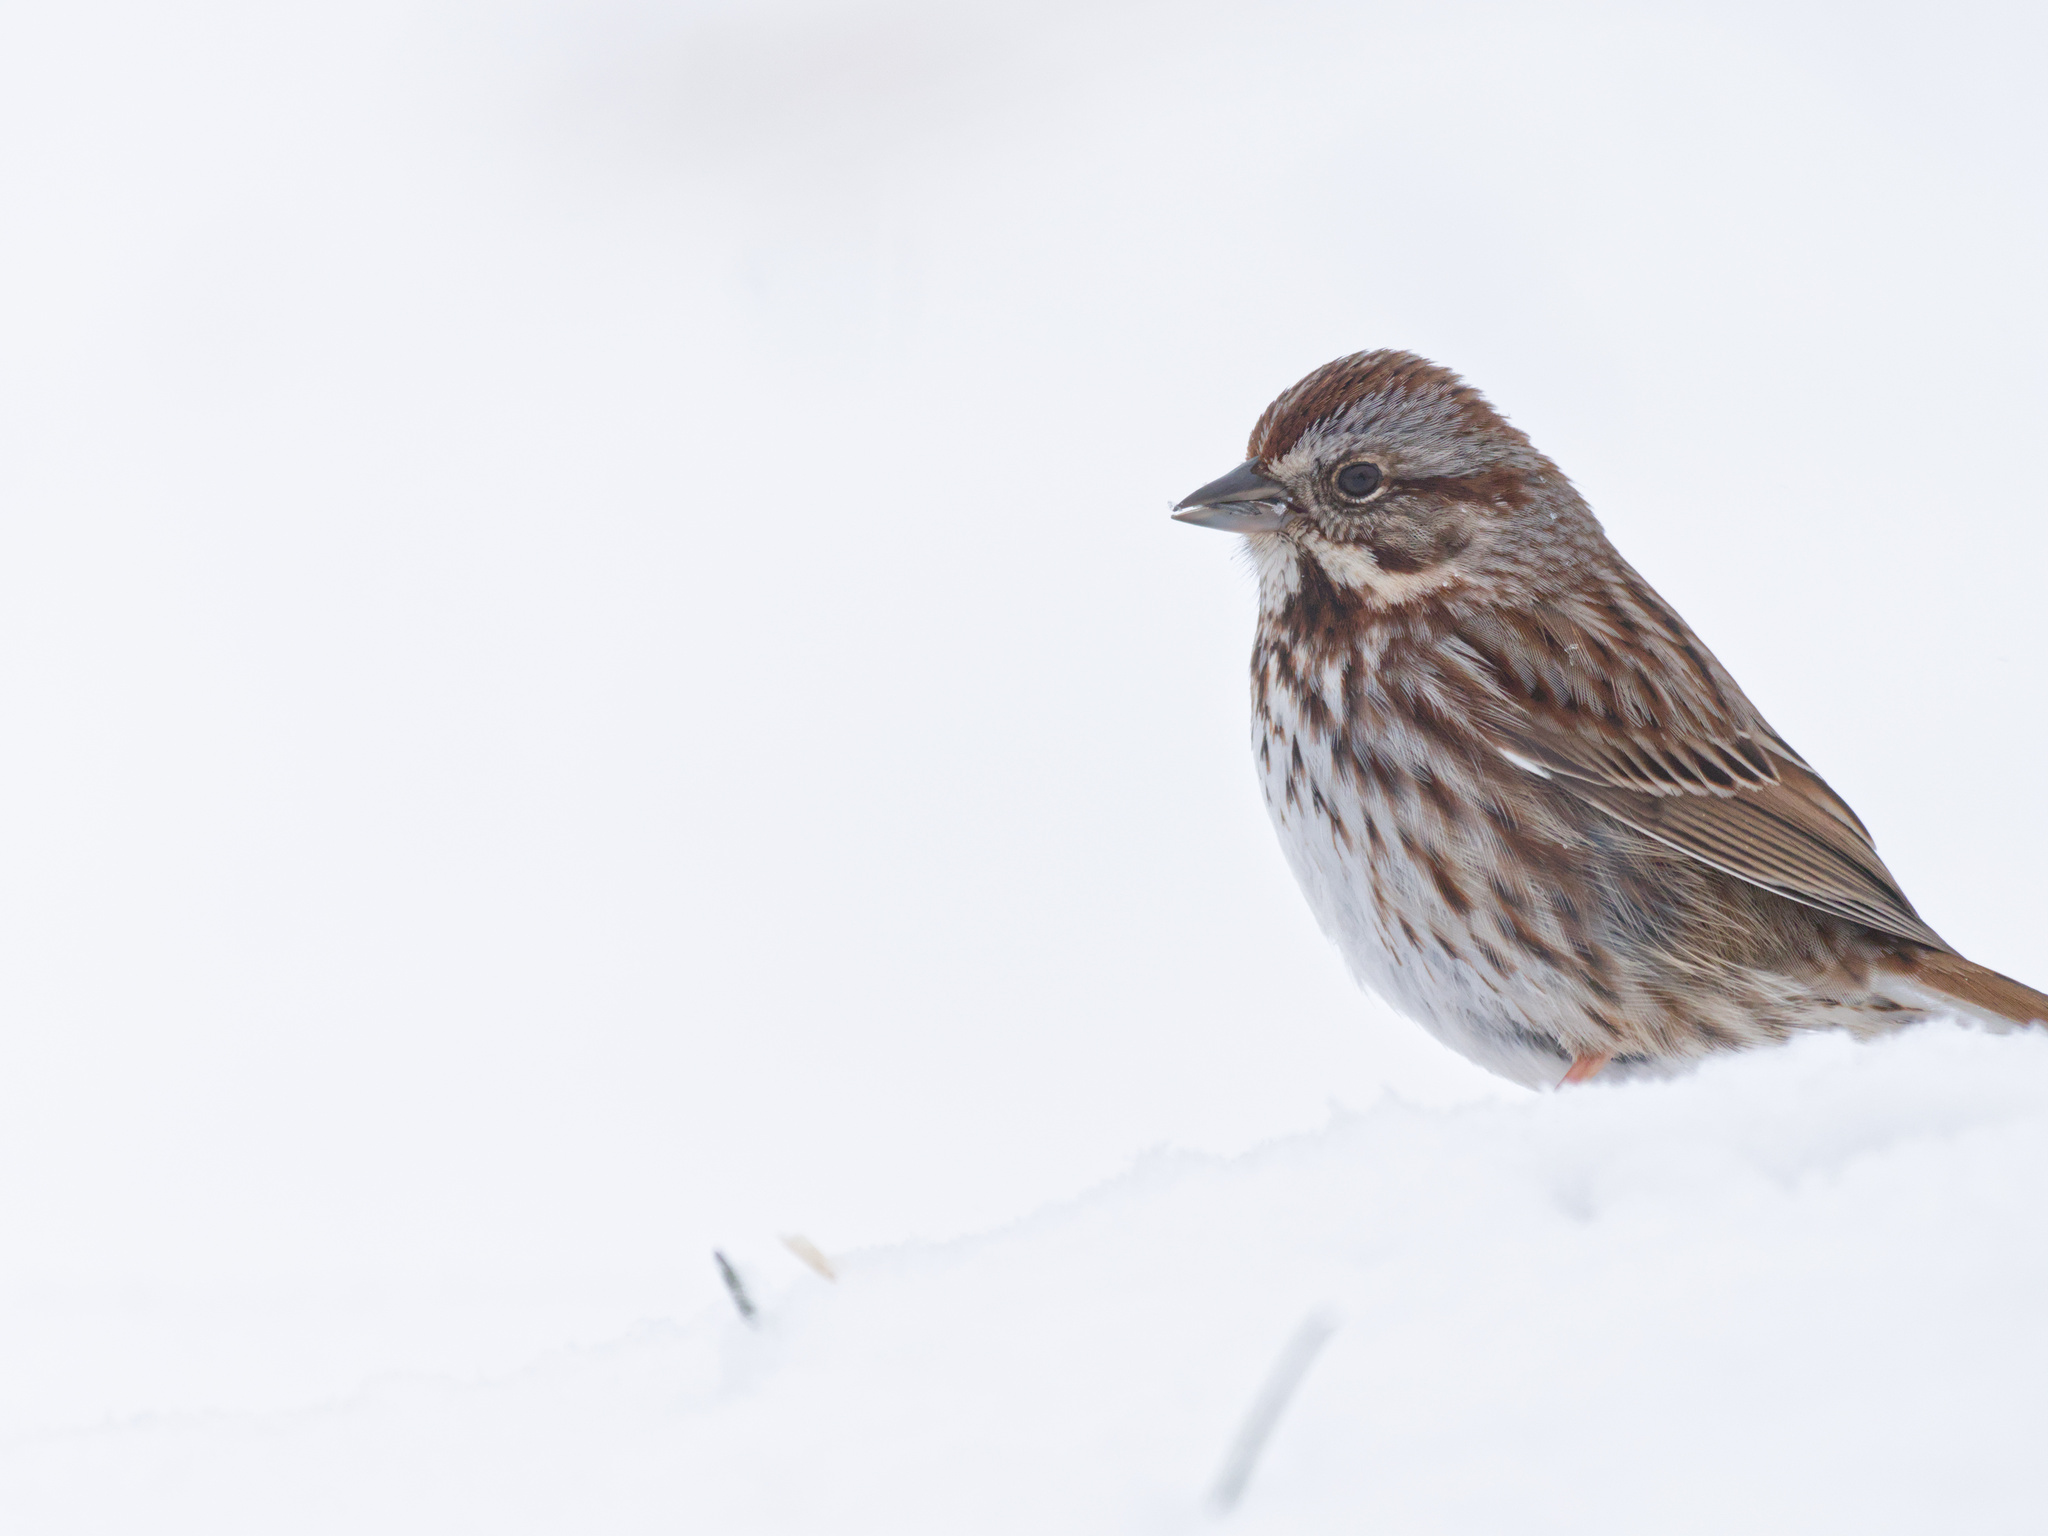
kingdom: Animalia
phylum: Chordata
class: Aves
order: Passeriformes
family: Passerellidae
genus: Melospiza
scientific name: Melospiza melodia
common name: Song sparrow
